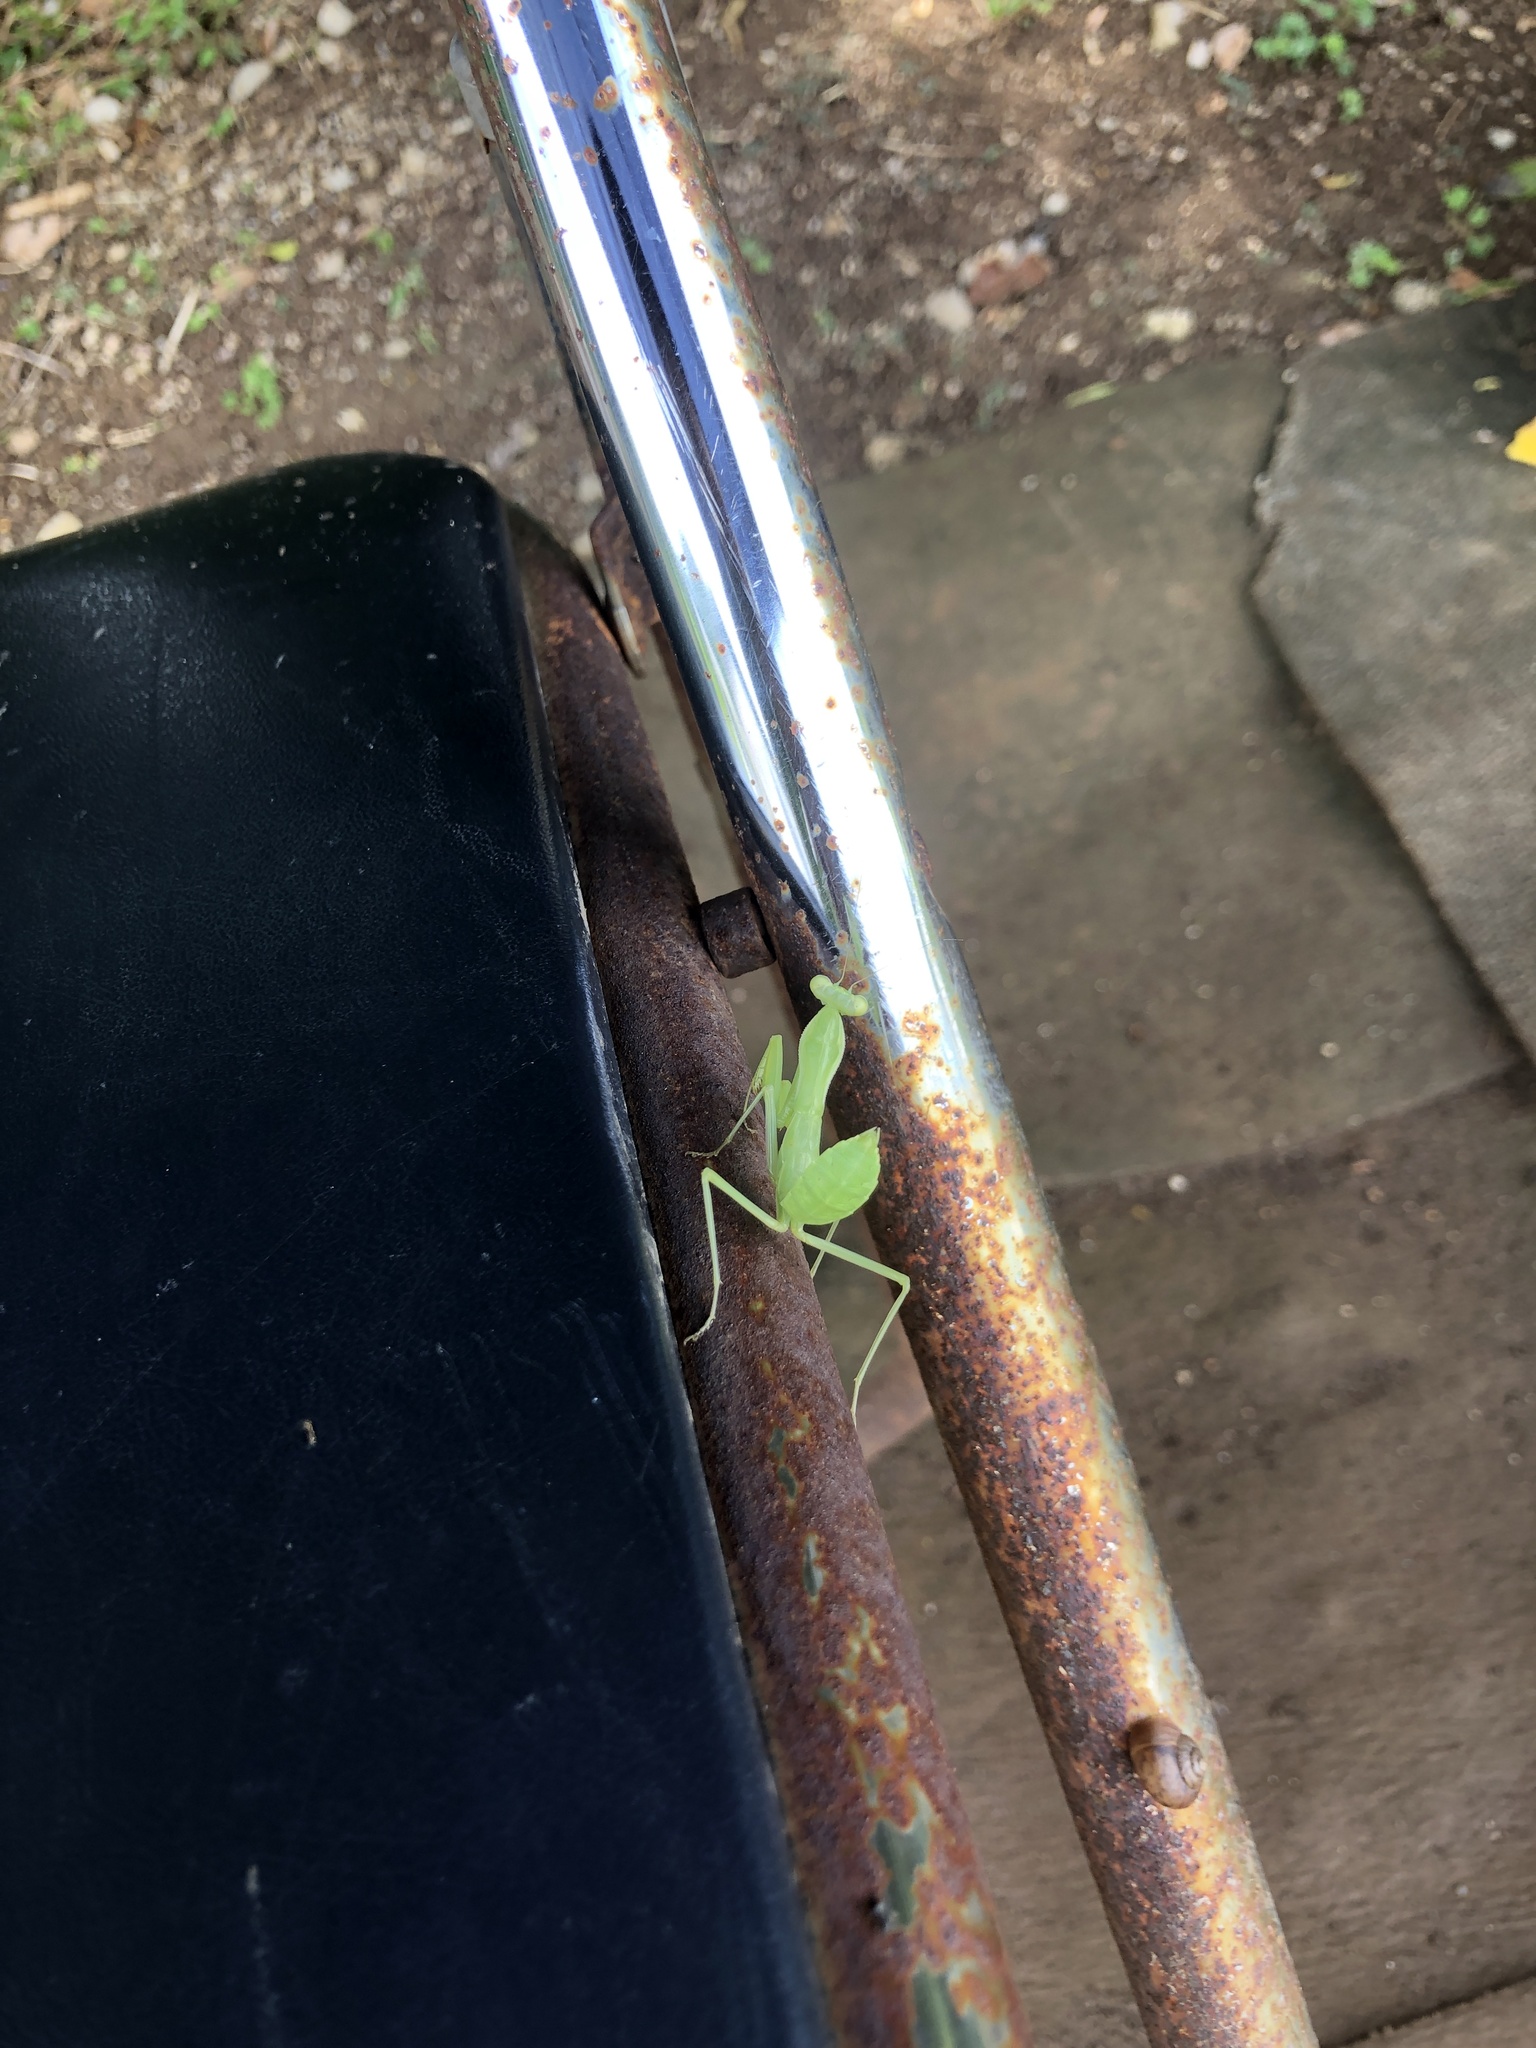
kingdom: Animalia
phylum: Arthropoda
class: Insecta
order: Mantodea
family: Mantidae
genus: Hierodula
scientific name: Hierodula patellifera
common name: Asian mantis
